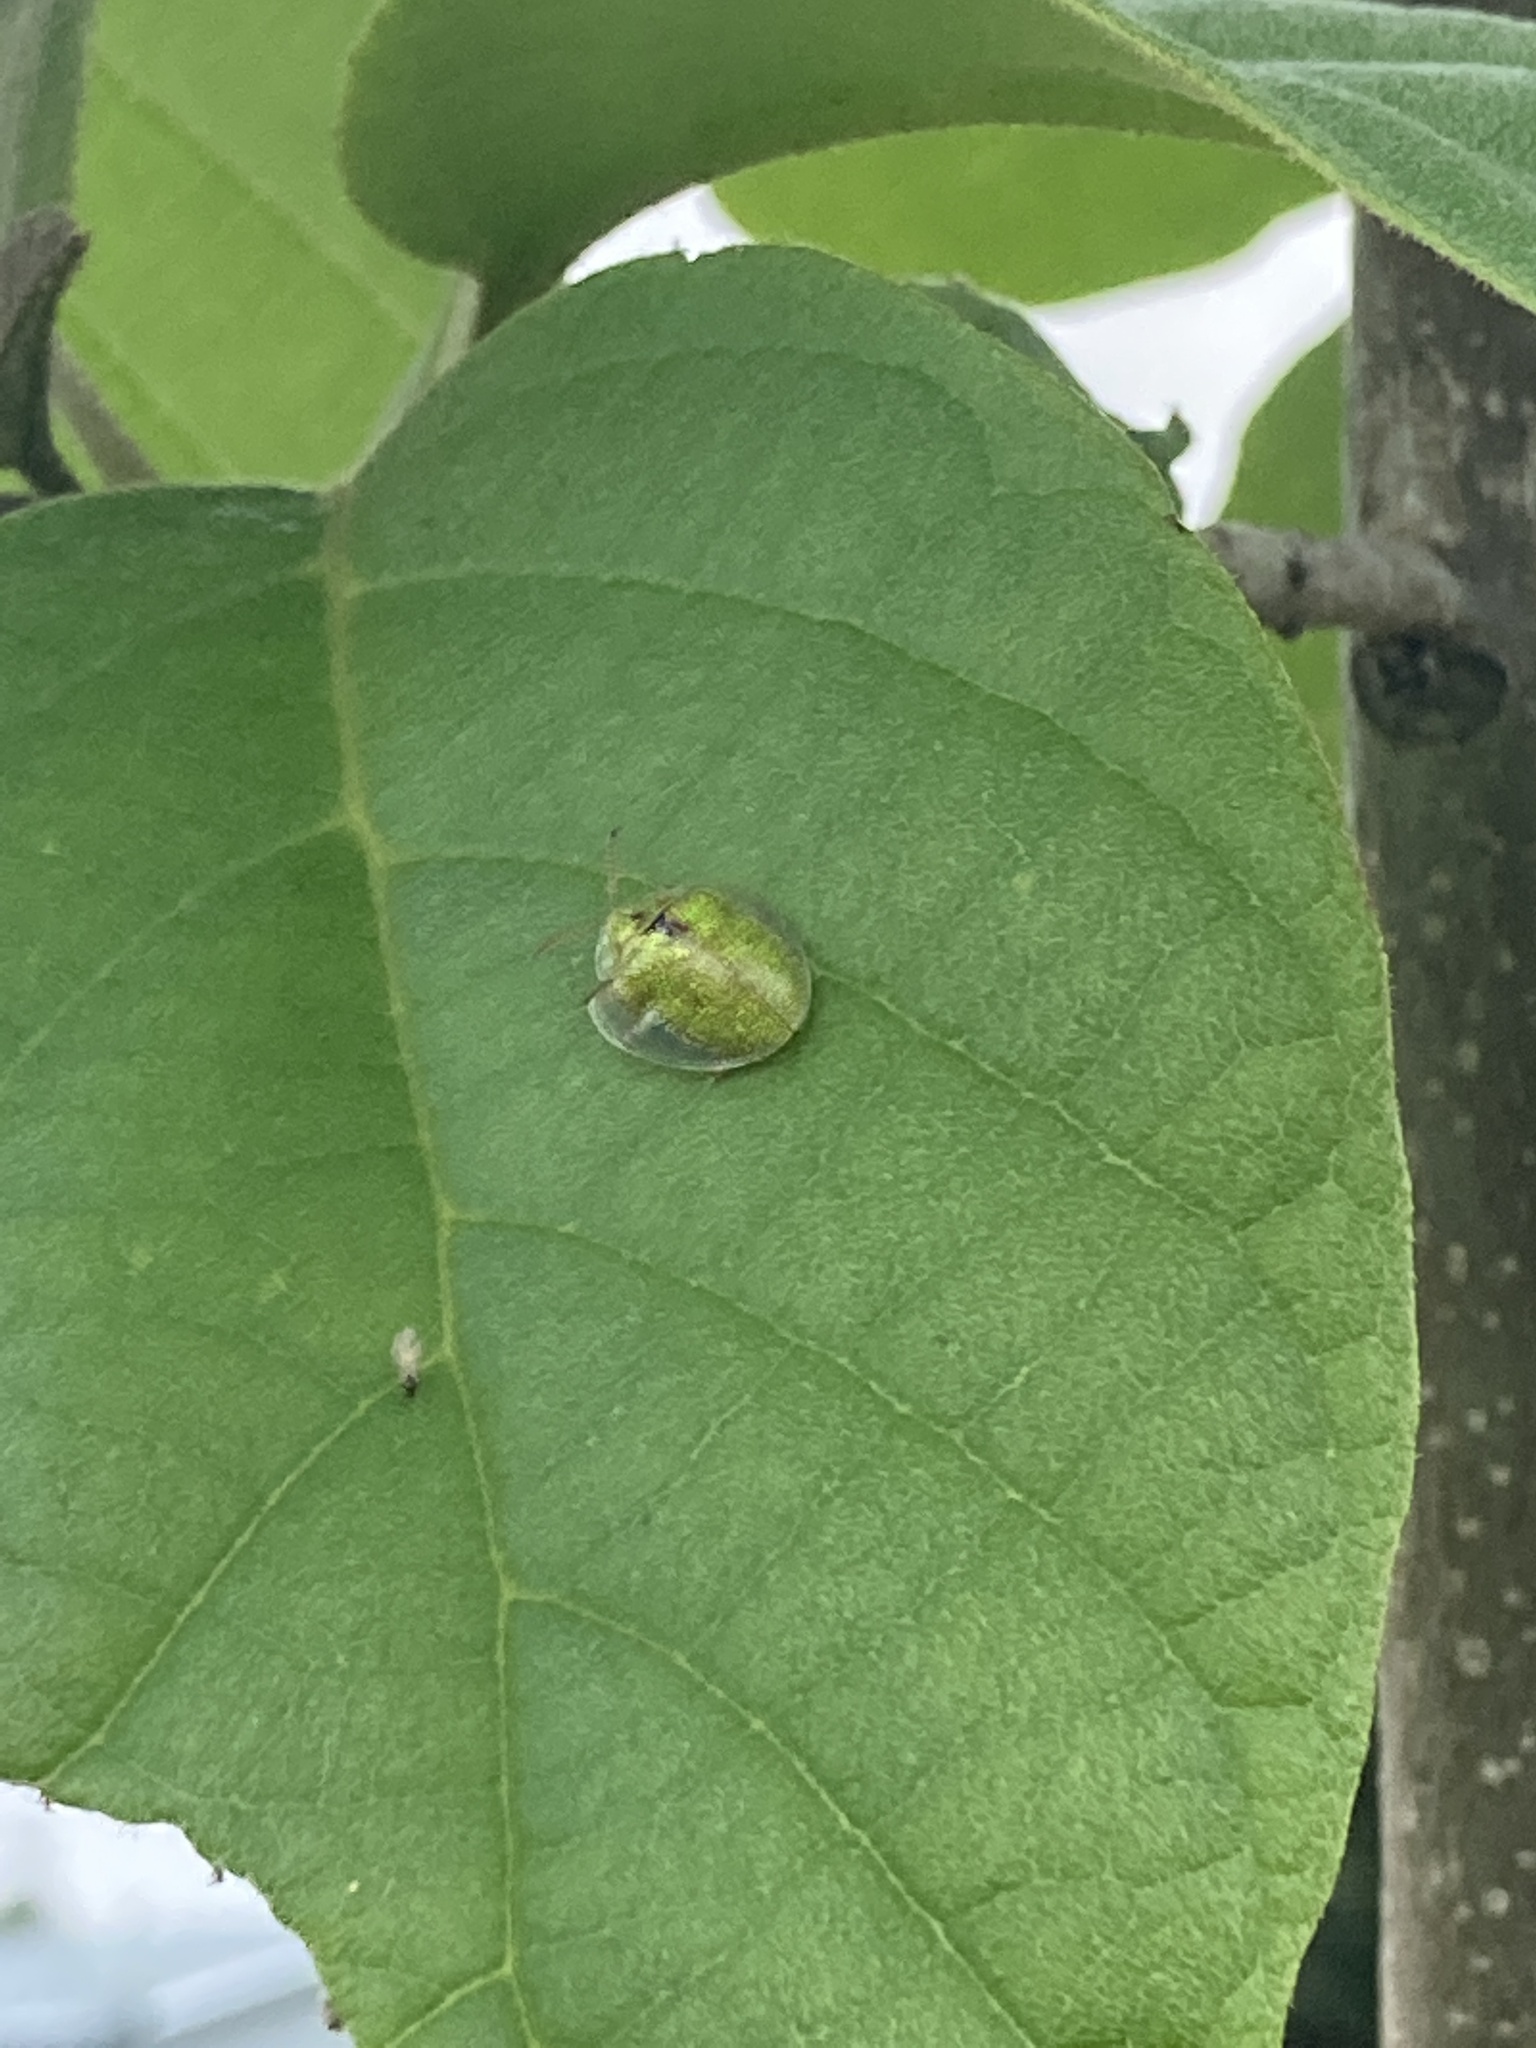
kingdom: Animalia
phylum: Arthropoda
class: Insecta
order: Coleoptera
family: Chrysomelidae
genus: Eurypepla
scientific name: Eurypepla calochroma
